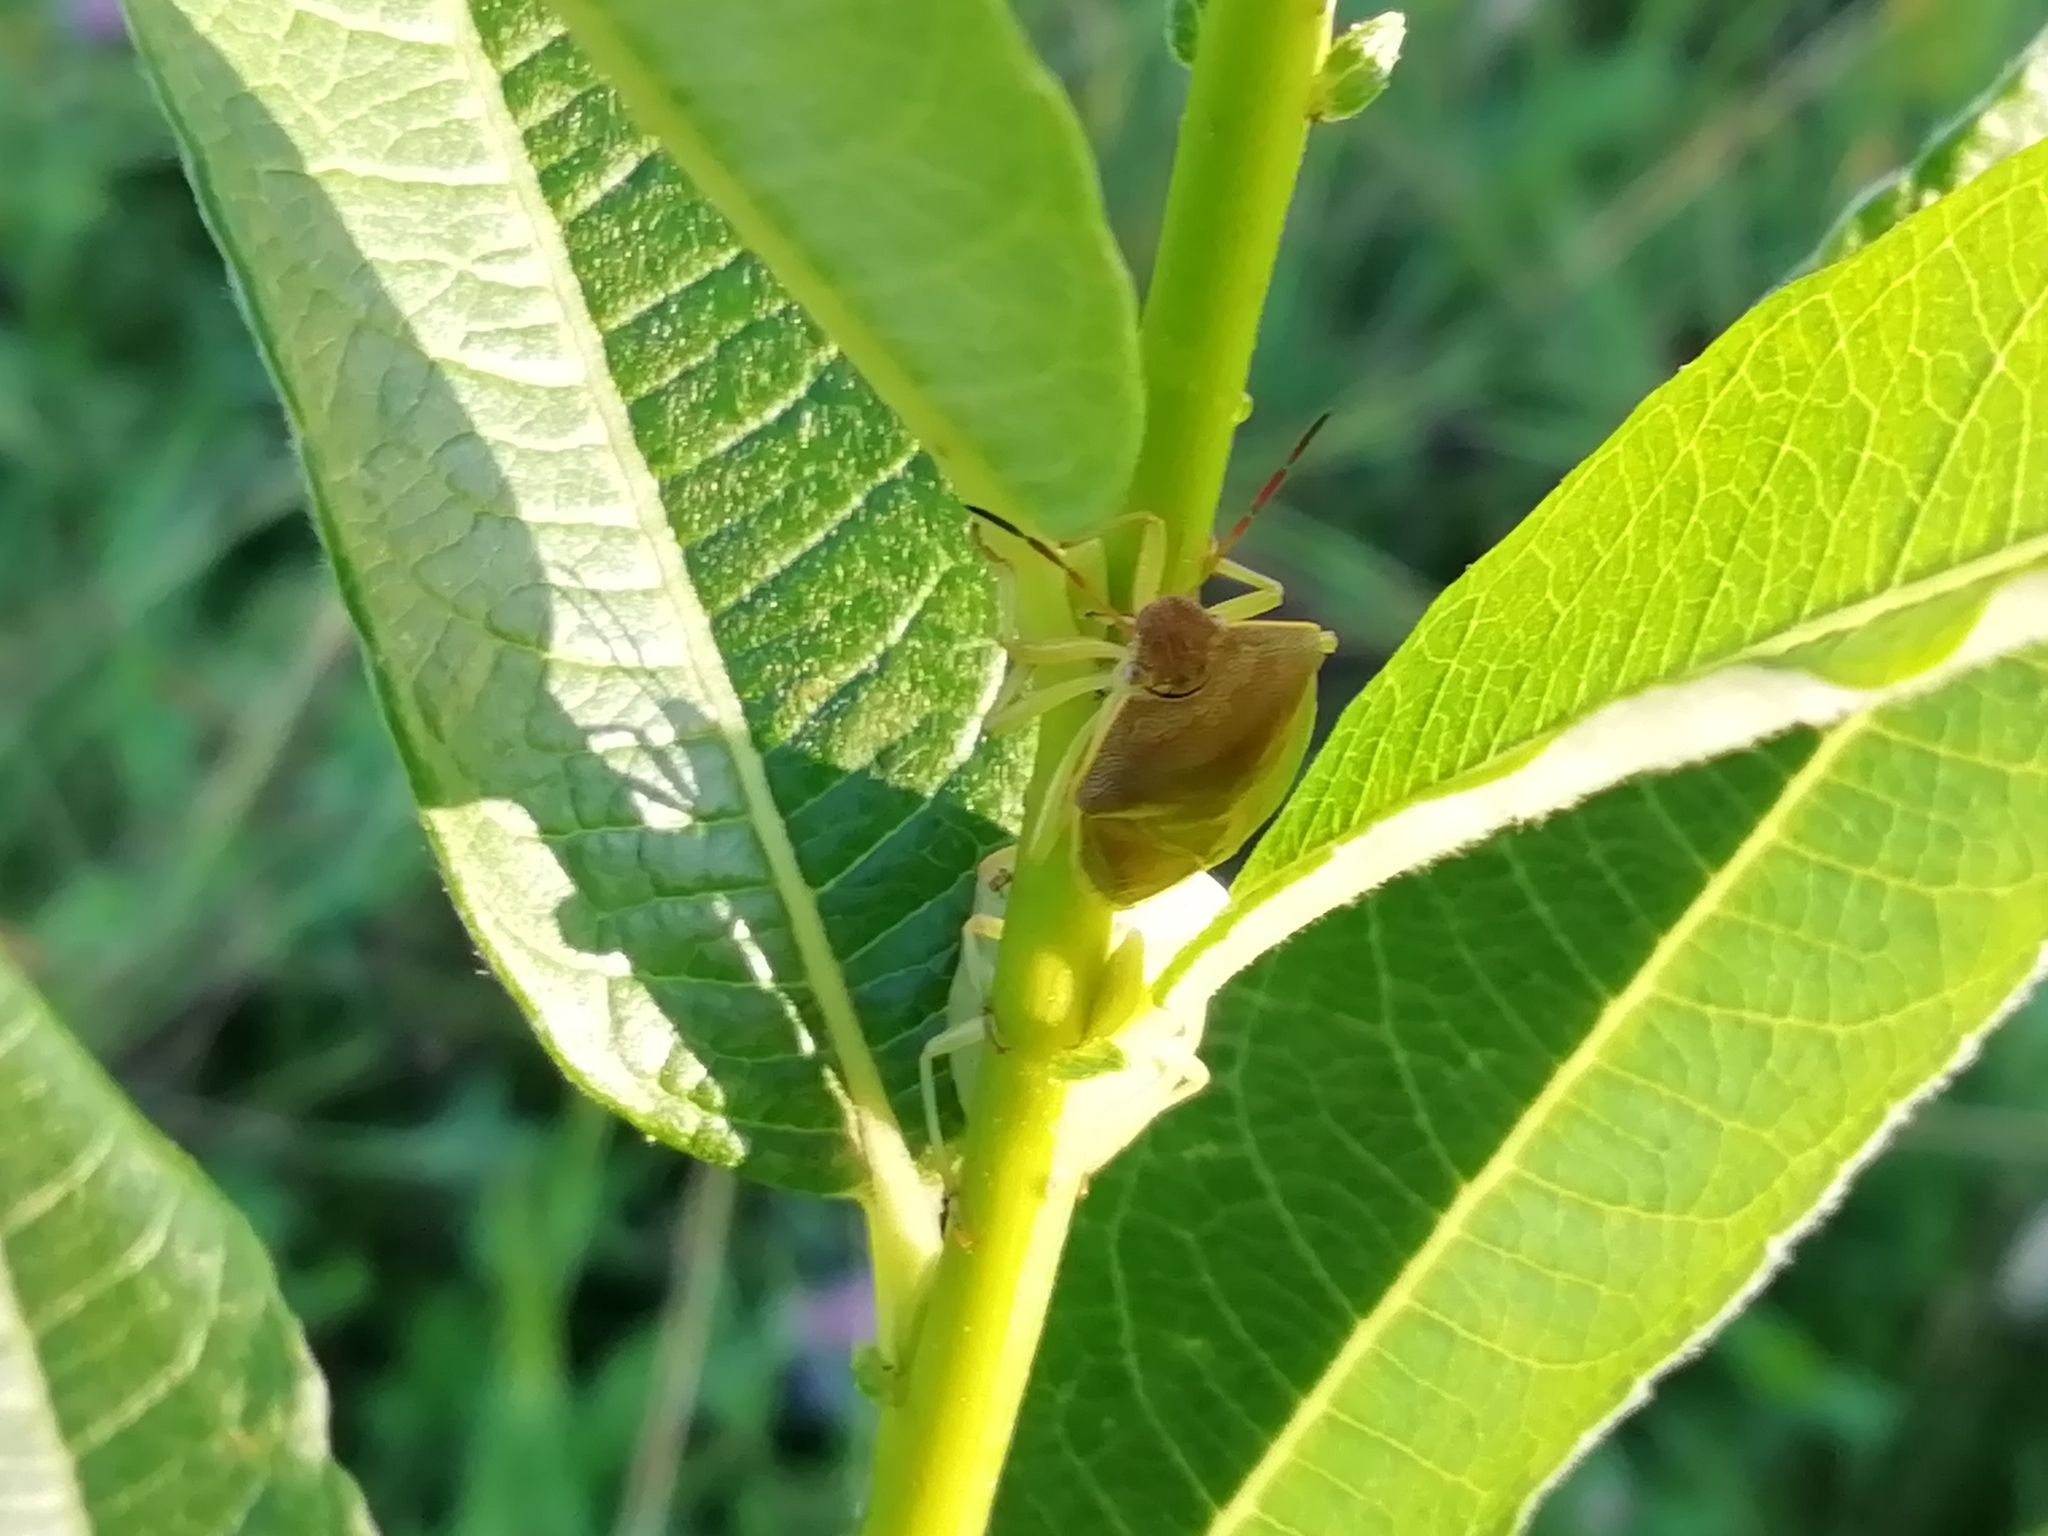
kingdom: Animalia
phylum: Arthropoda
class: Insecta
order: Hemiptera
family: Pentatomidae
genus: Piezodorus
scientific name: Piezodorus lituratus
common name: Stink bug
